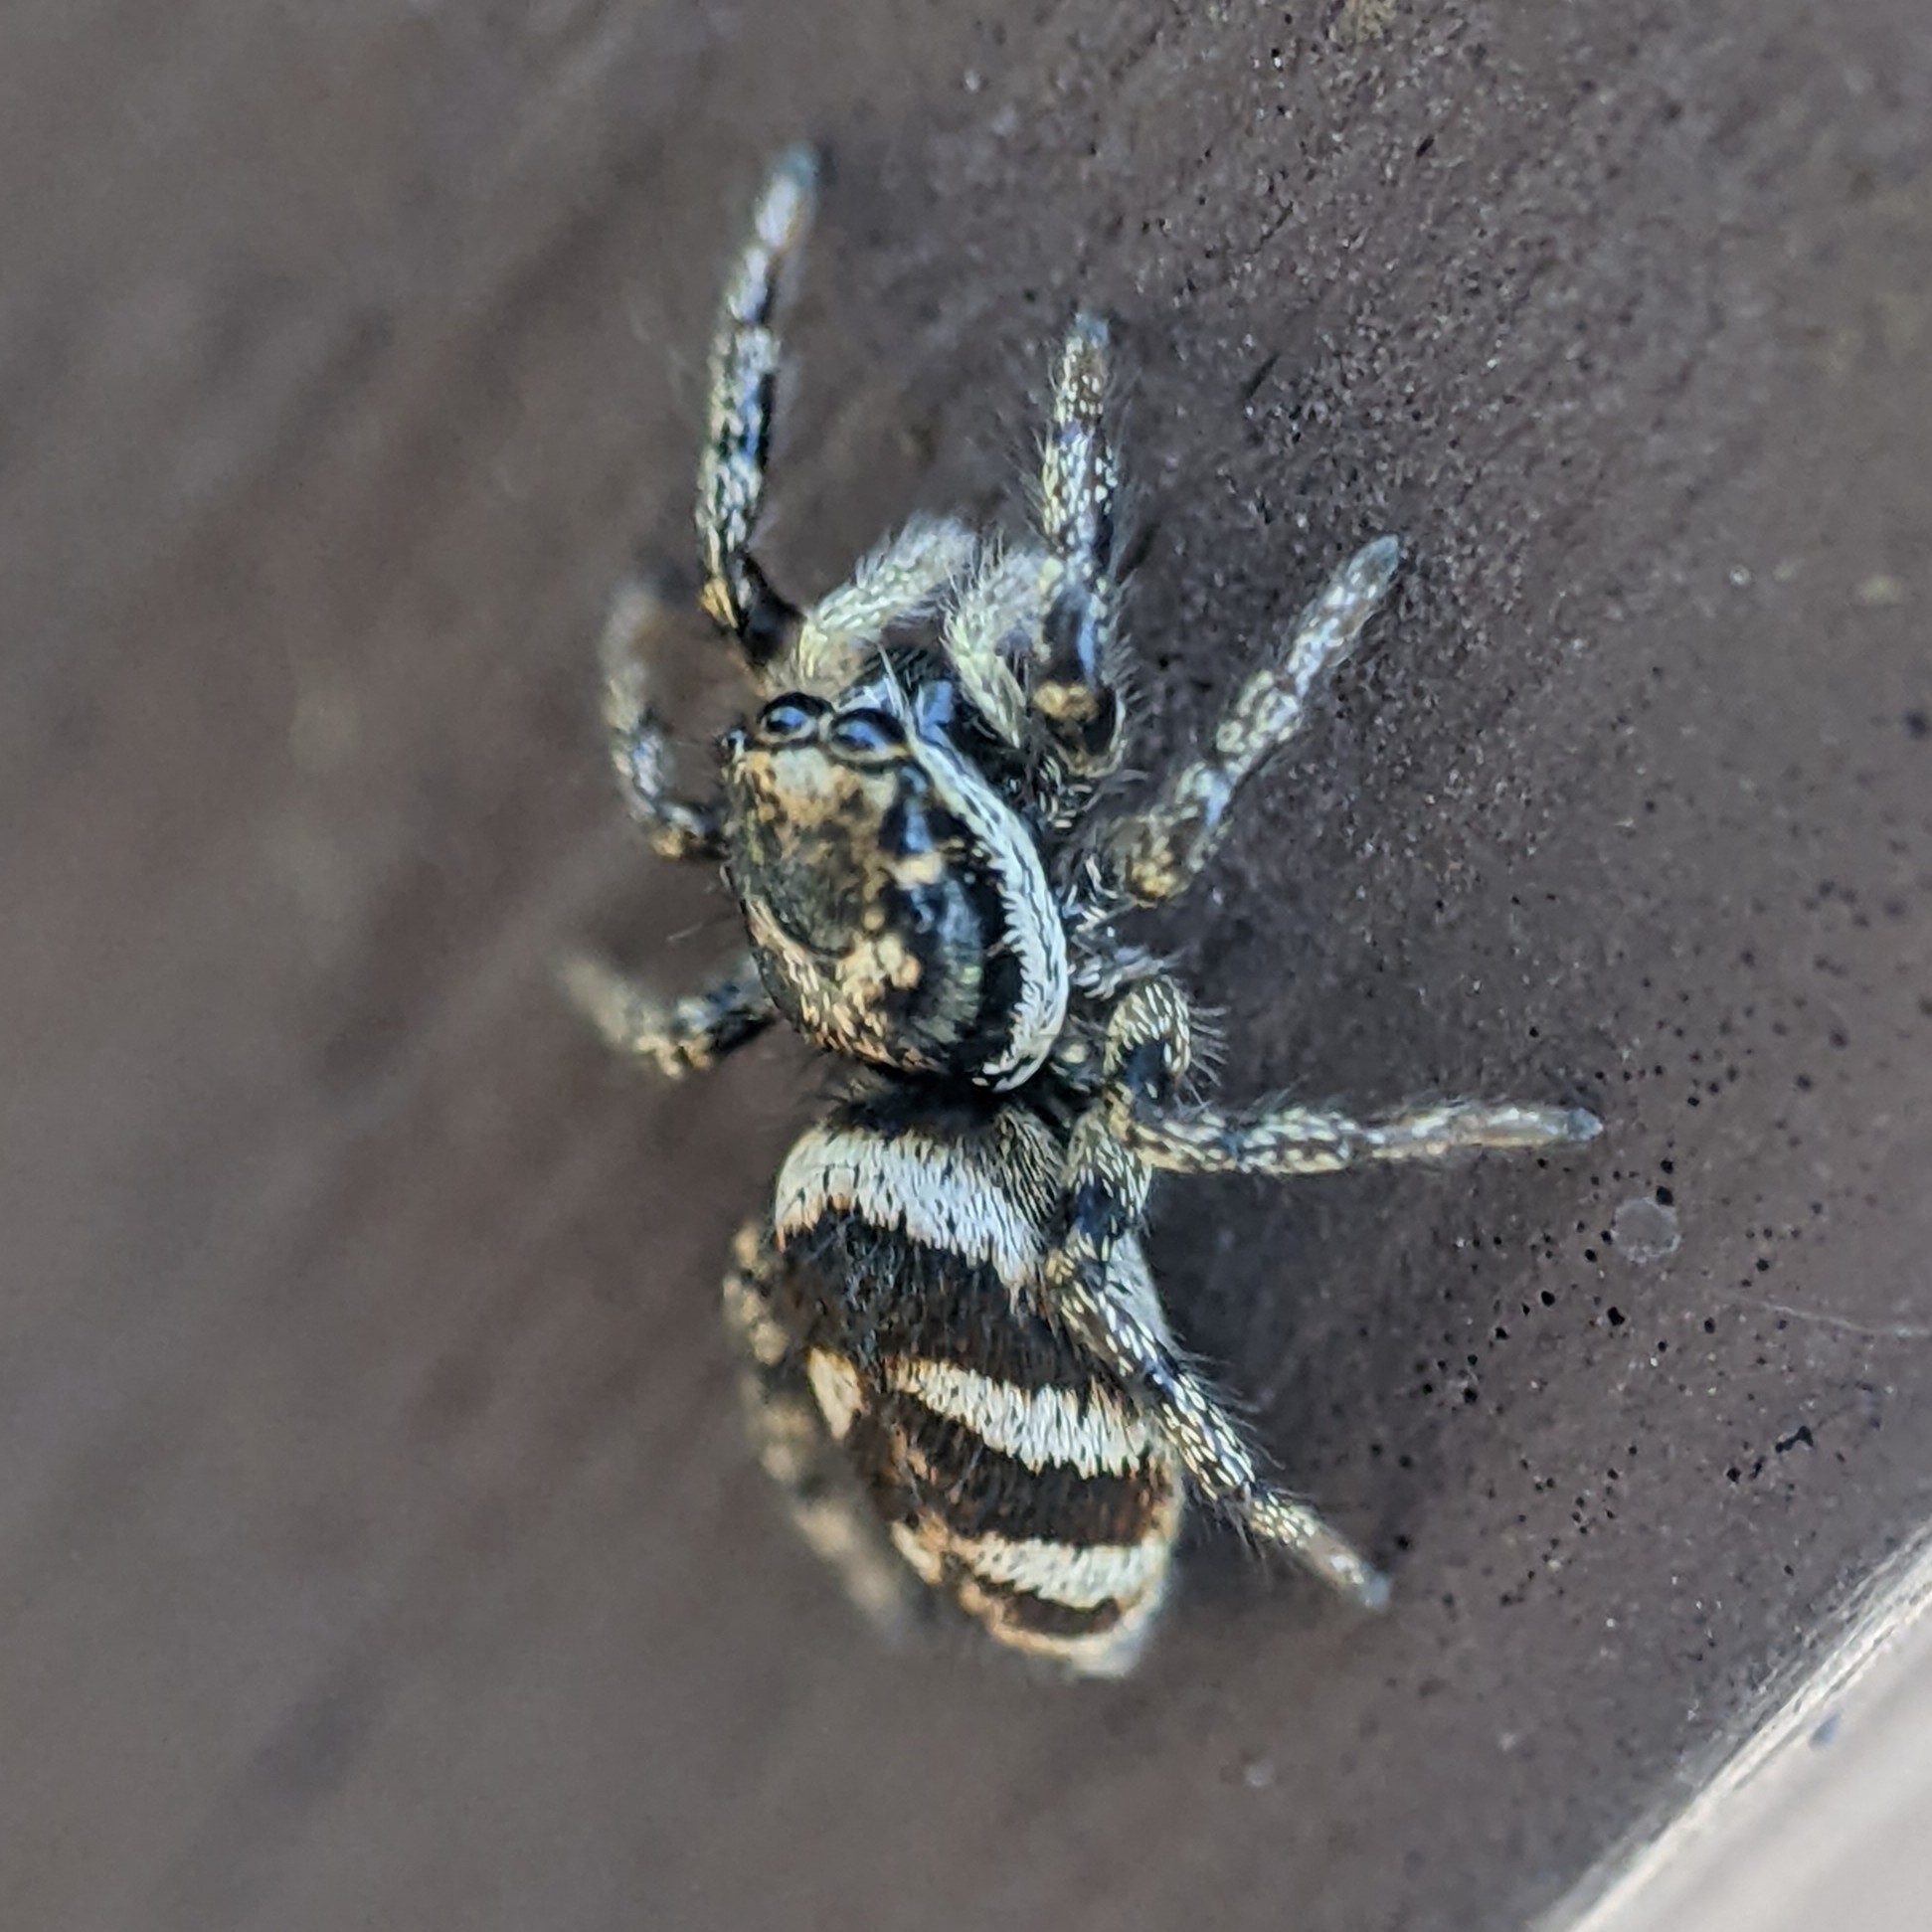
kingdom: Animalia
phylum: Arthropoda
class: Arachnida
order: Araneae
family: Salticidae
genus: Salticus
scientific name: Salticus scenicus
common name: Zebra jumper
